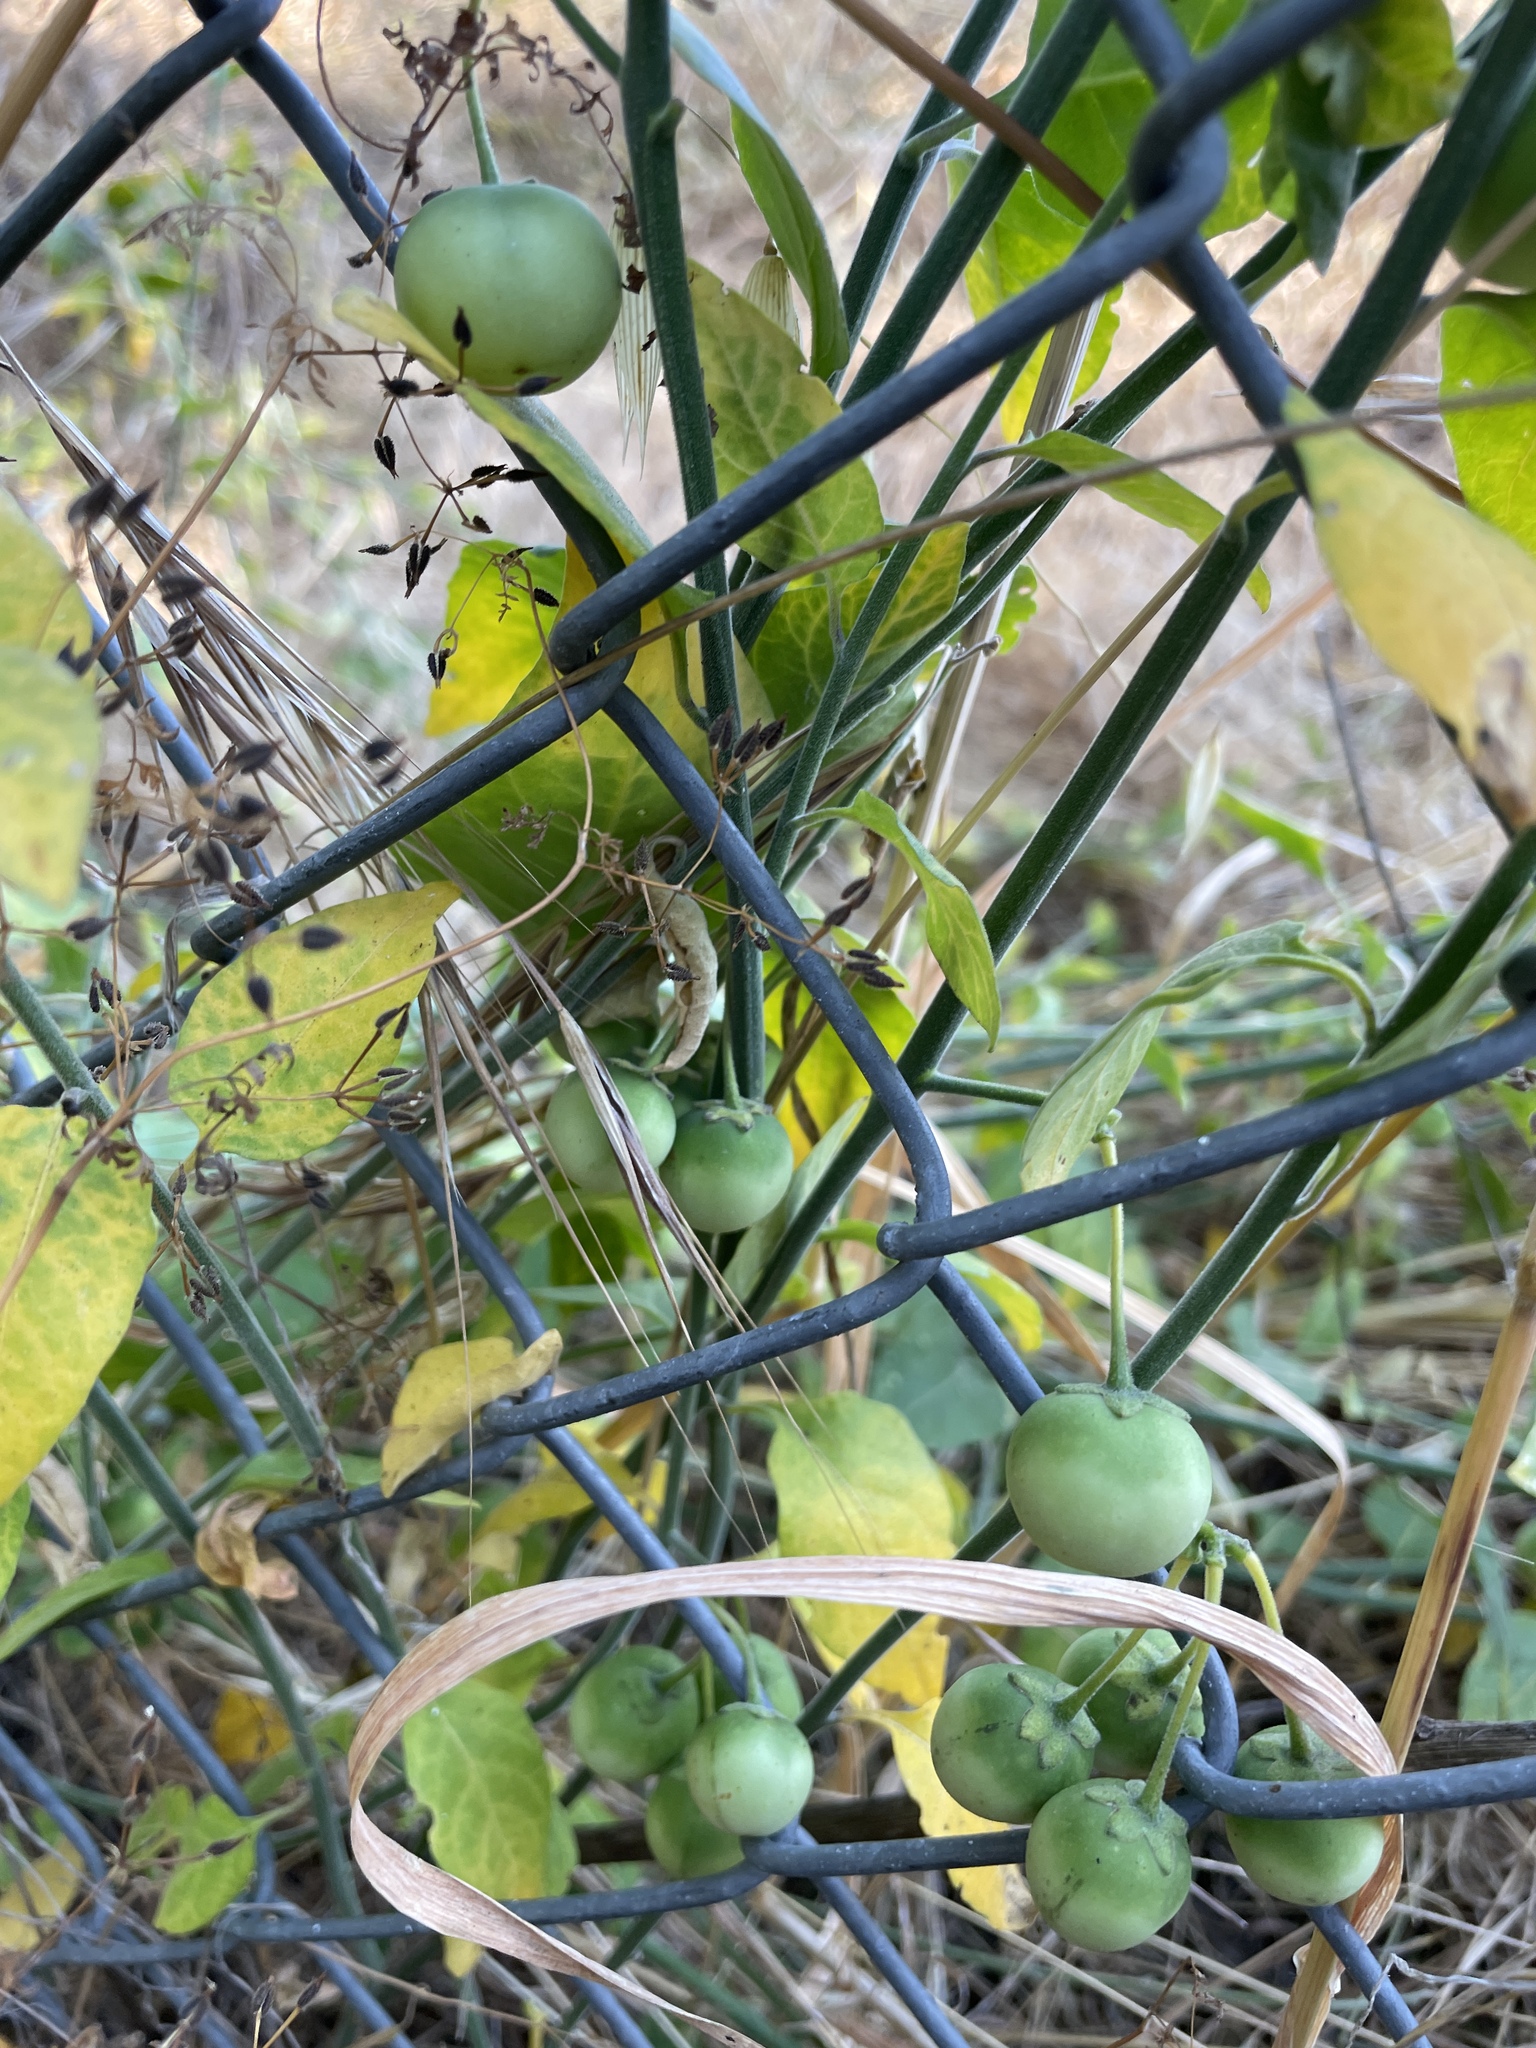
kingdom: Plantae
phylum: Tracheophyta
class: Magnoliopsida
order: Solanales
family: Solanaceae
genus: Solanum
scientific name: Solanum umbelliferum
